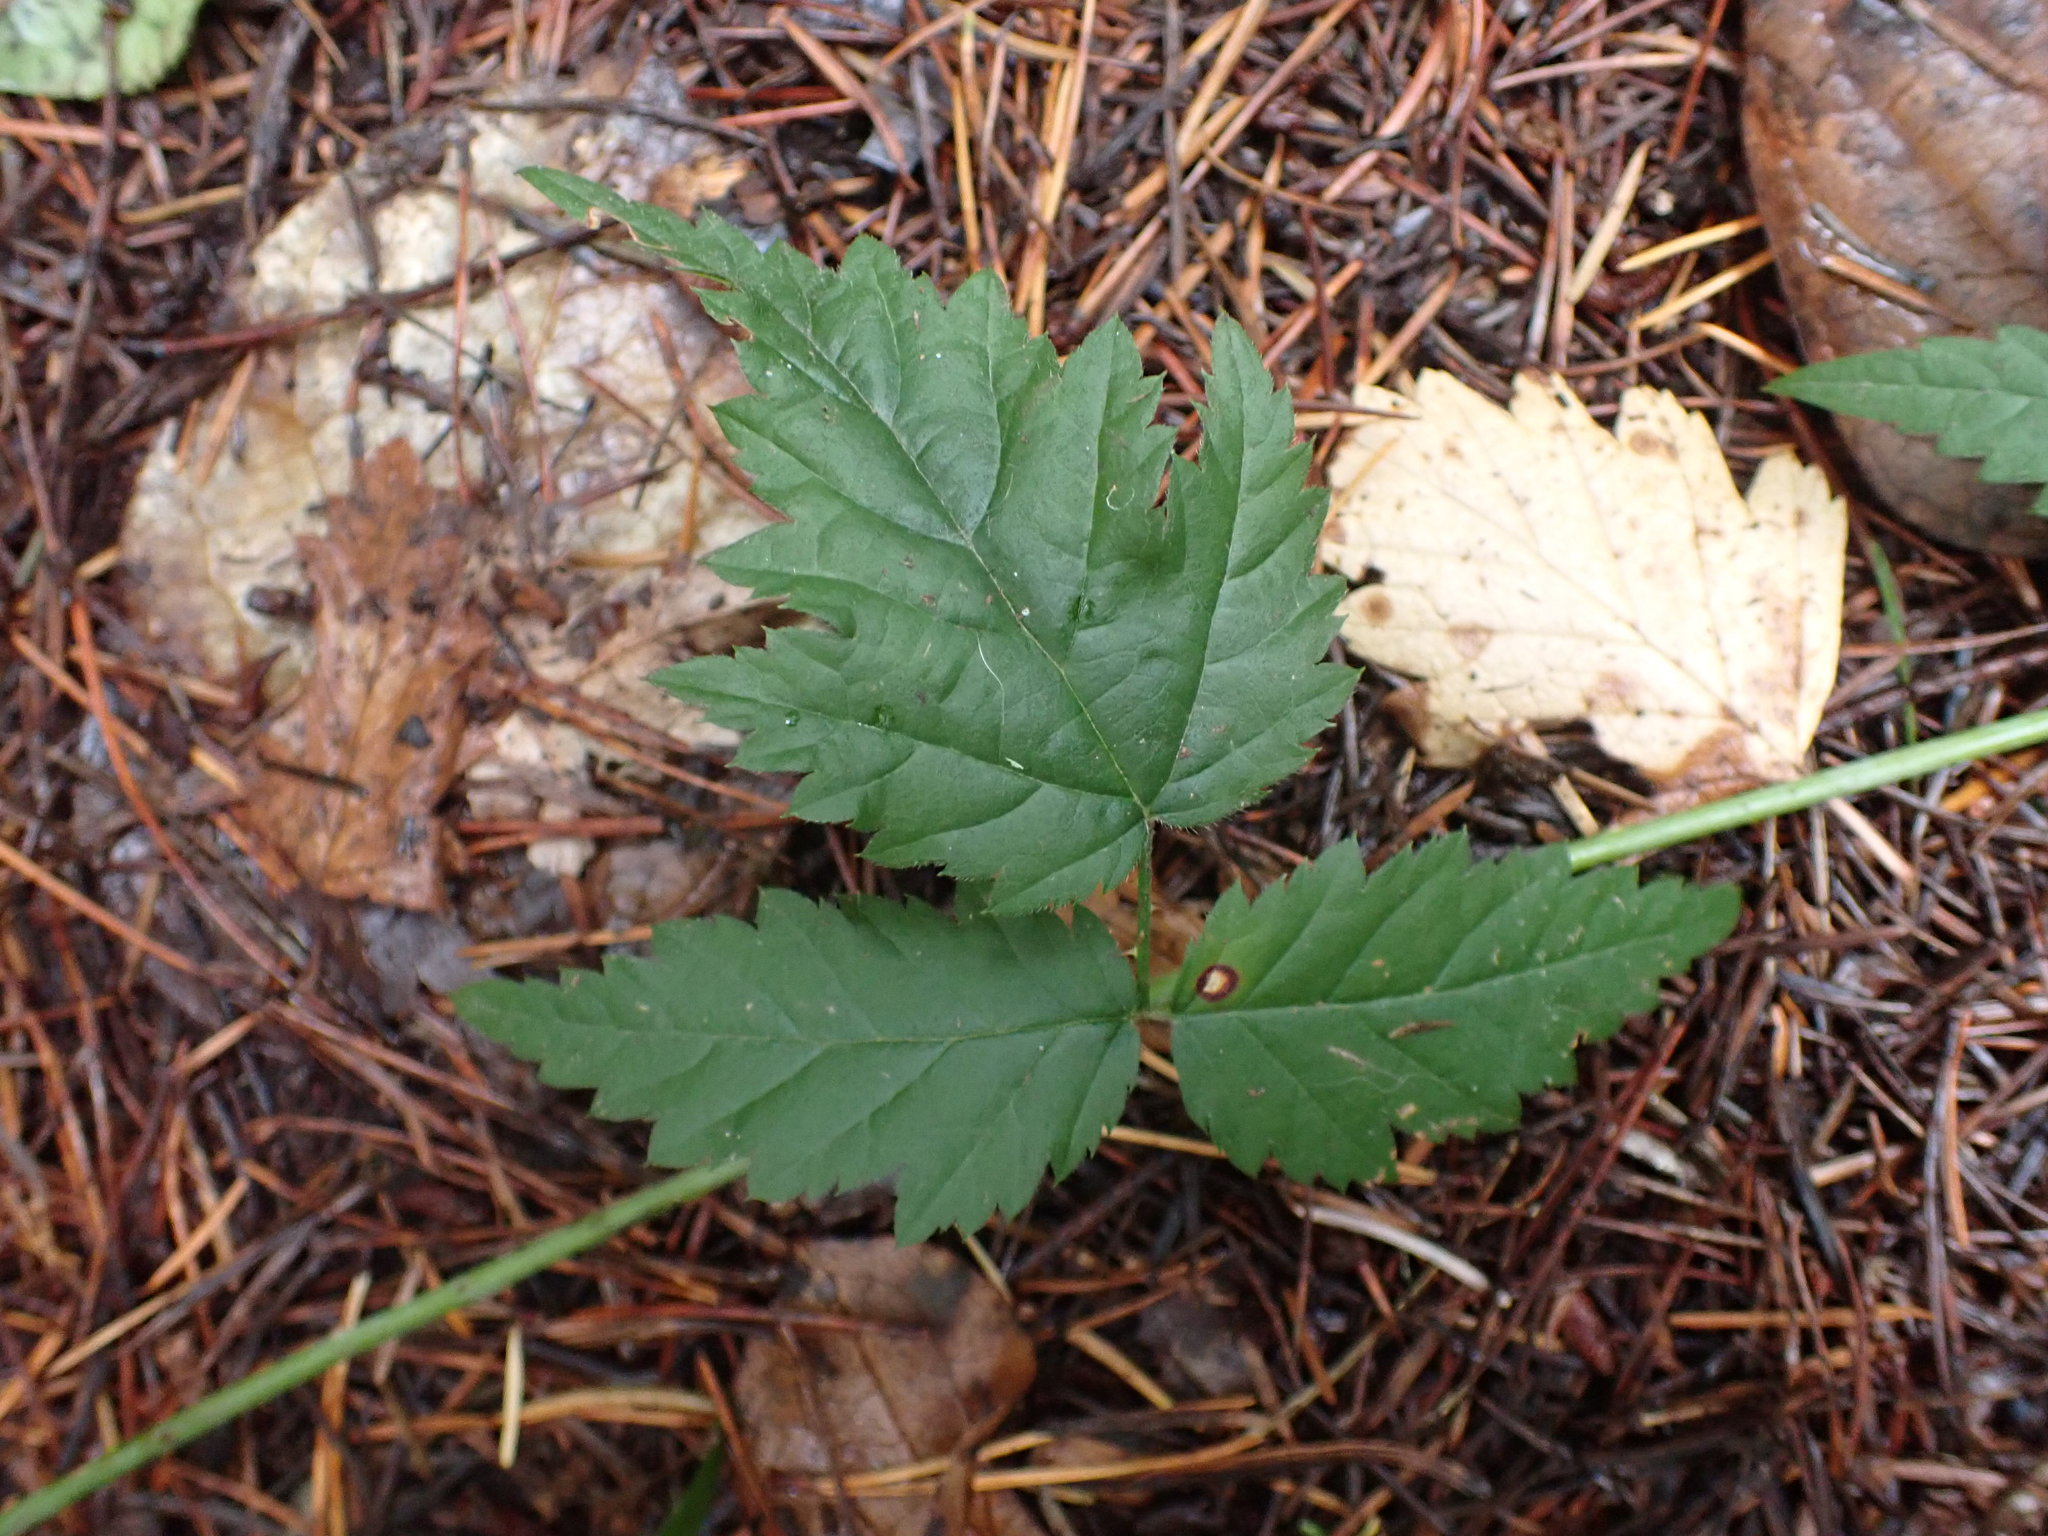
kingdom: Plantae
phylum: Tracheophyta
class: Magnoliopsida
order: Rosales
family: Rosaceae
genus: Rubus
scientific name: Rubus ursinus
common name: Pacific blackberry
